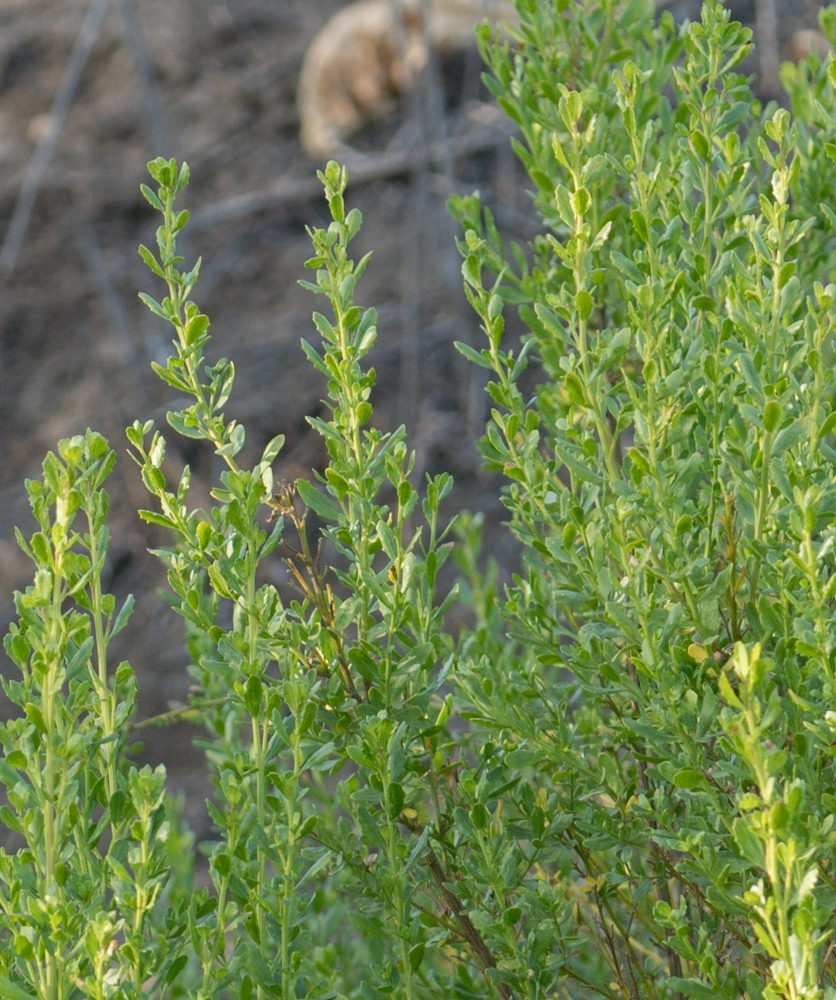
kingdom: Plantae
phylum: Tracheophyta
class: Magnoliopsida
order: Asterales
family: Asteraceae
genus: Baccharis
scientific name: Baccharis pilularis
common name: Coyotebrush
